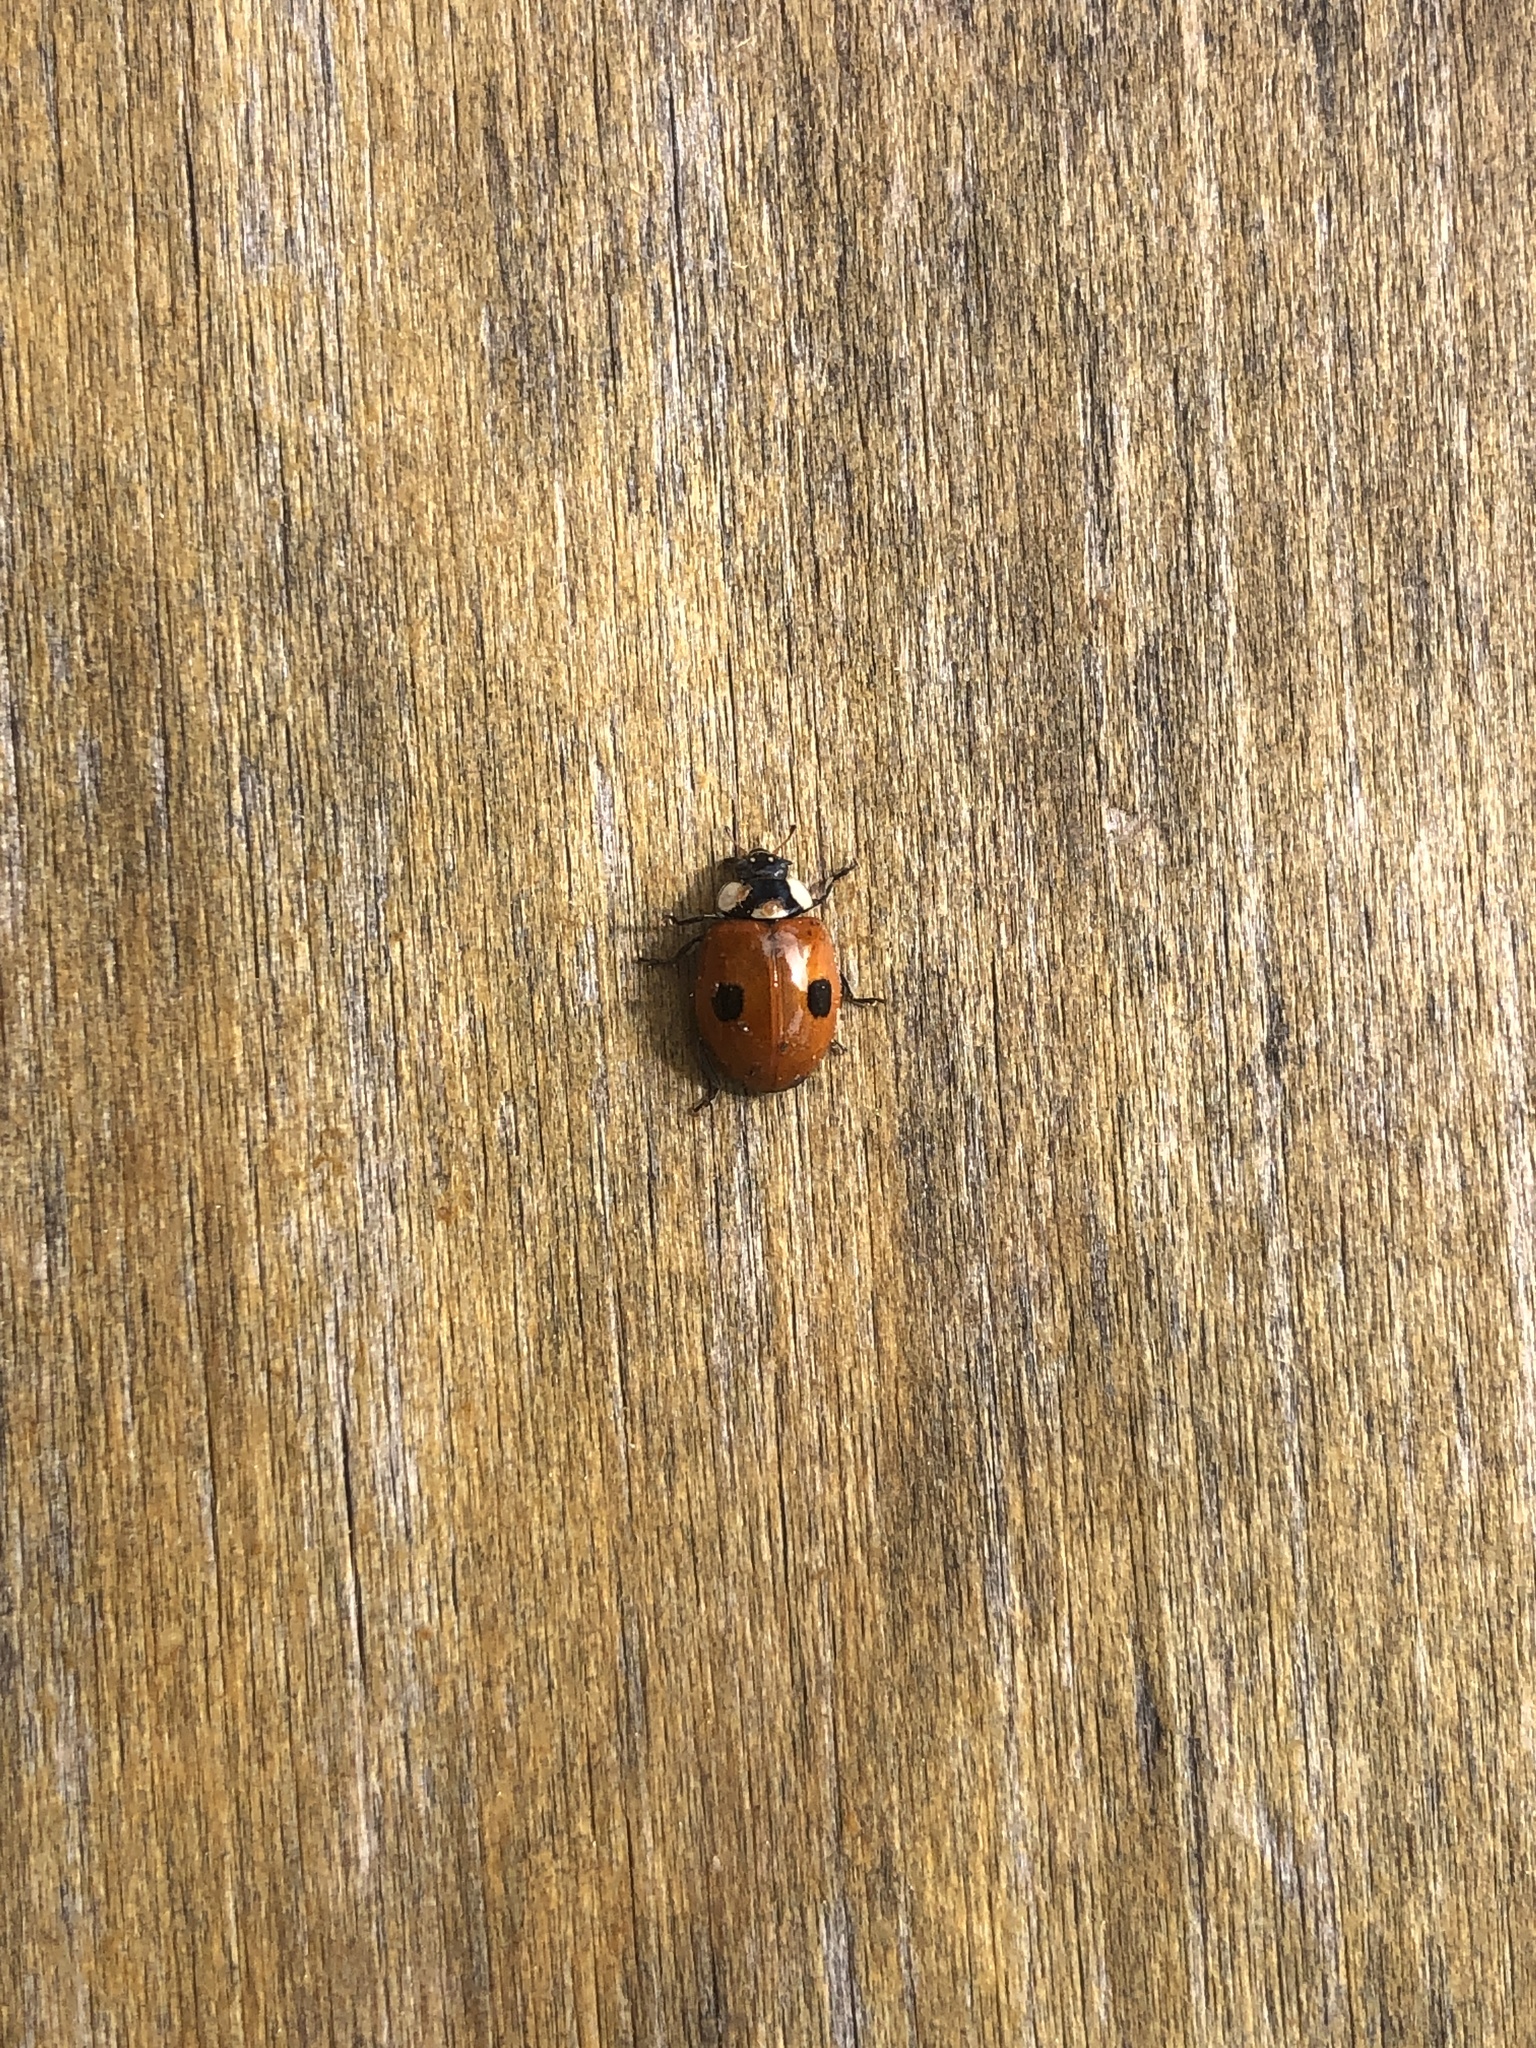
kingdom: Animalia
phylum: Arthropoda
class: Insecta
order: Coleoptera
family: Coccinellidae
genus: Adalia
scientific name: Adalia bipunctata
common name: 2-spot ladybird
